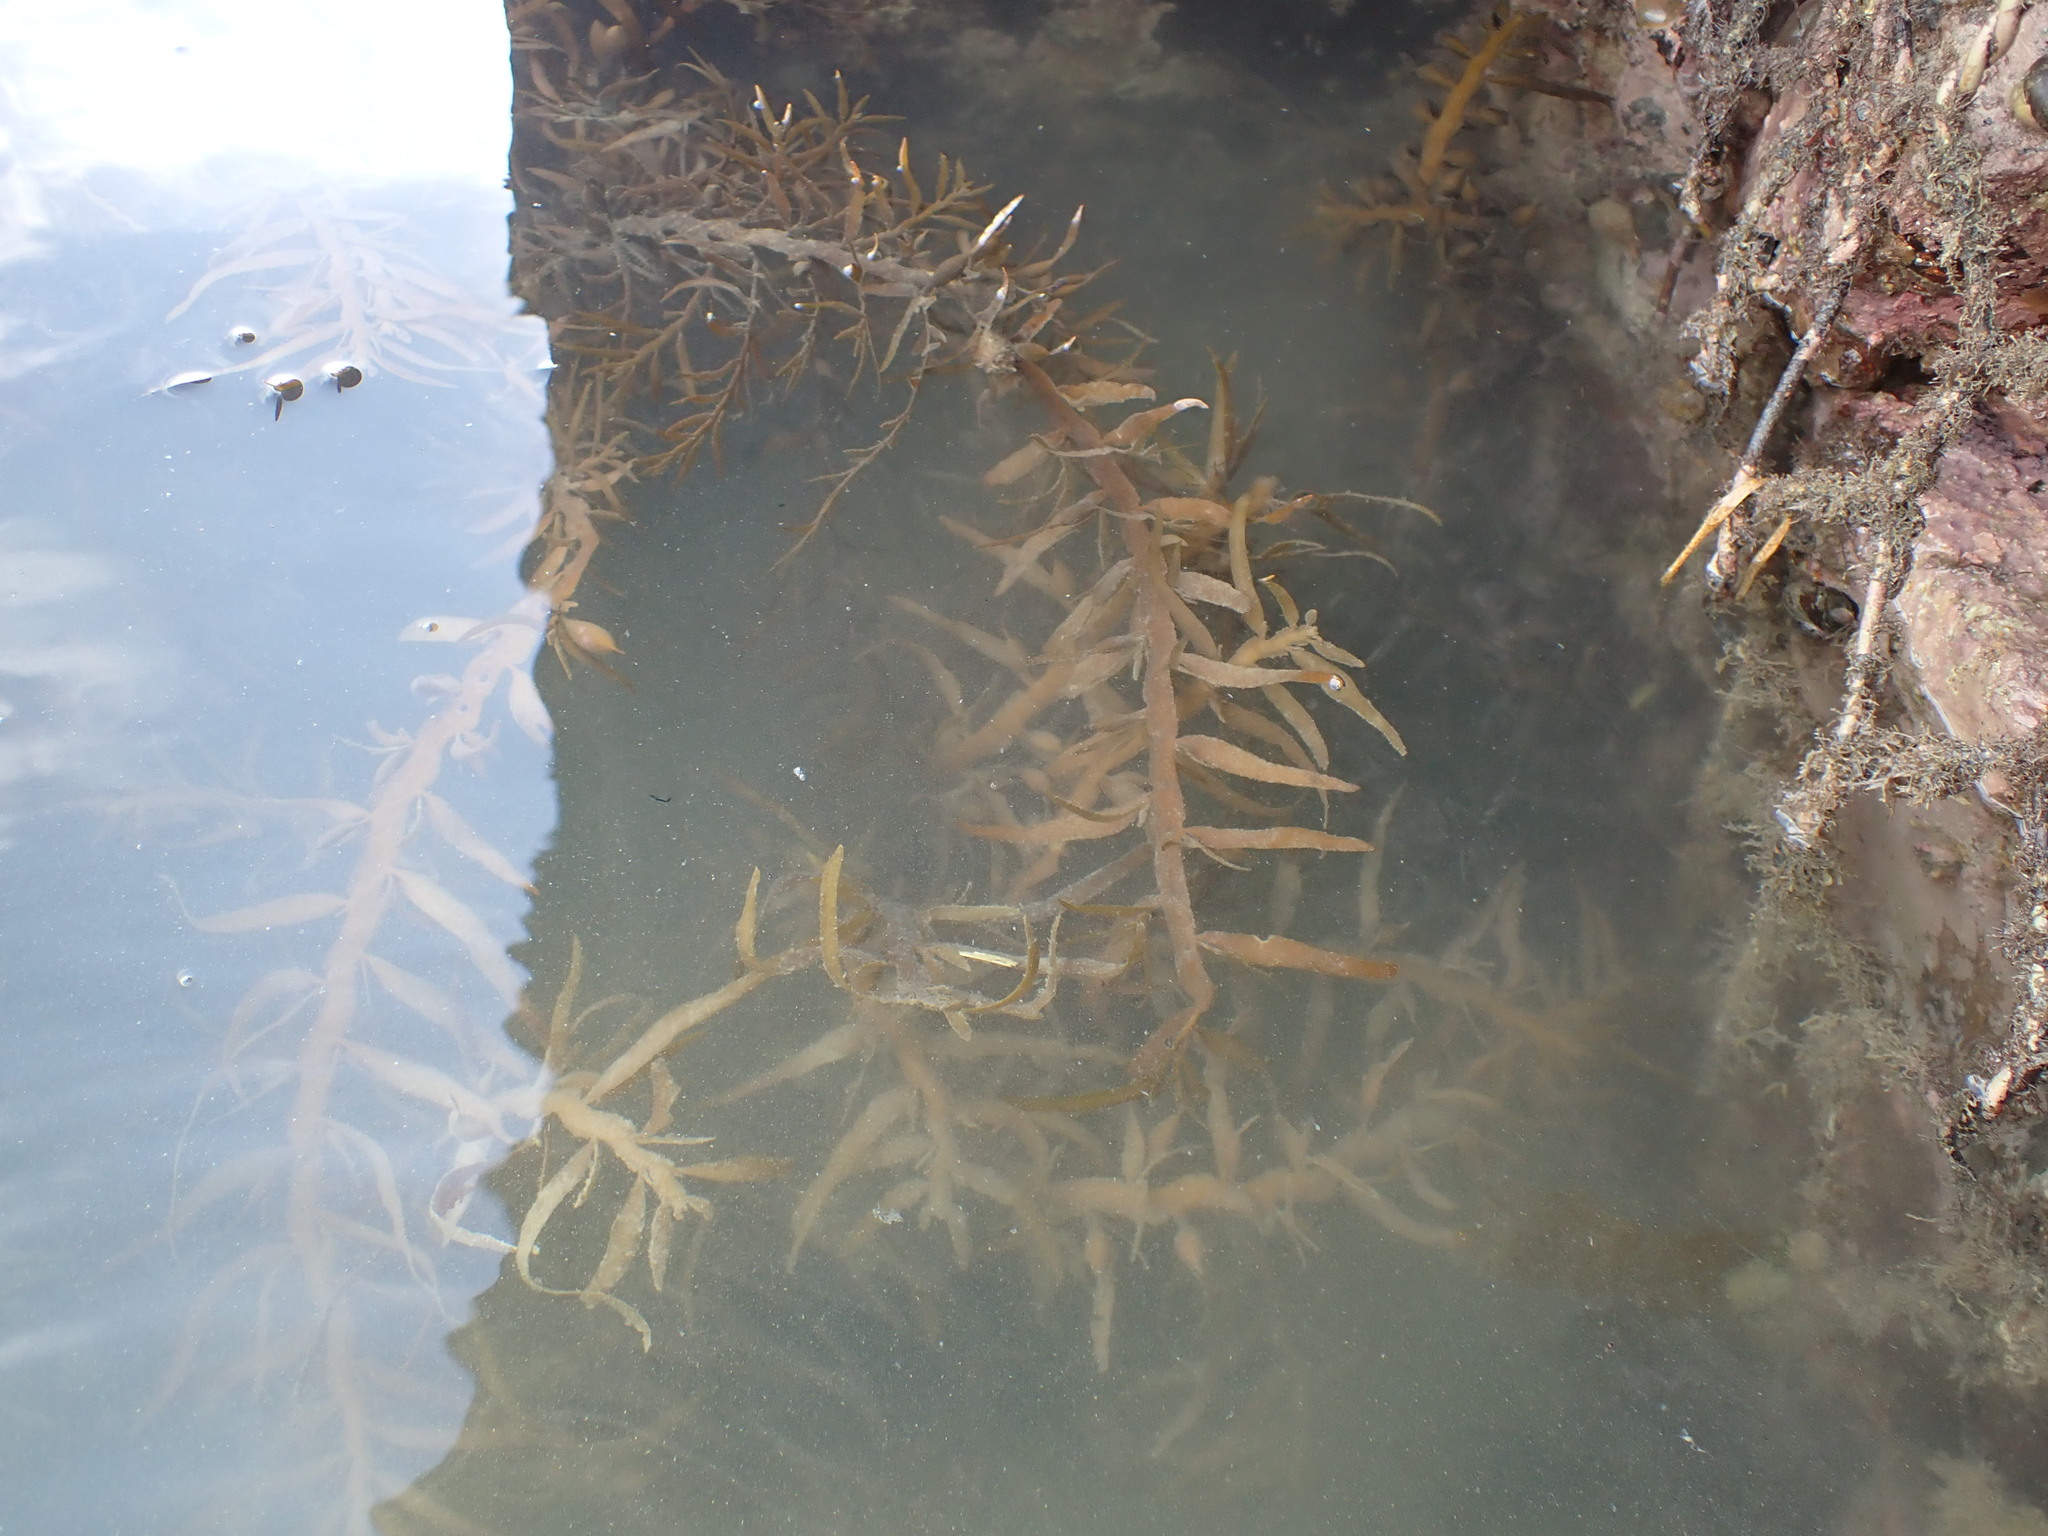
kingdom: Chromista
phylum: Ochrophyta
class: Phaeophyceae
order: Fucales
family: Sargassaceae
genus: Carpophyllum
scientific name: Carpophyllum maschalocarpum
